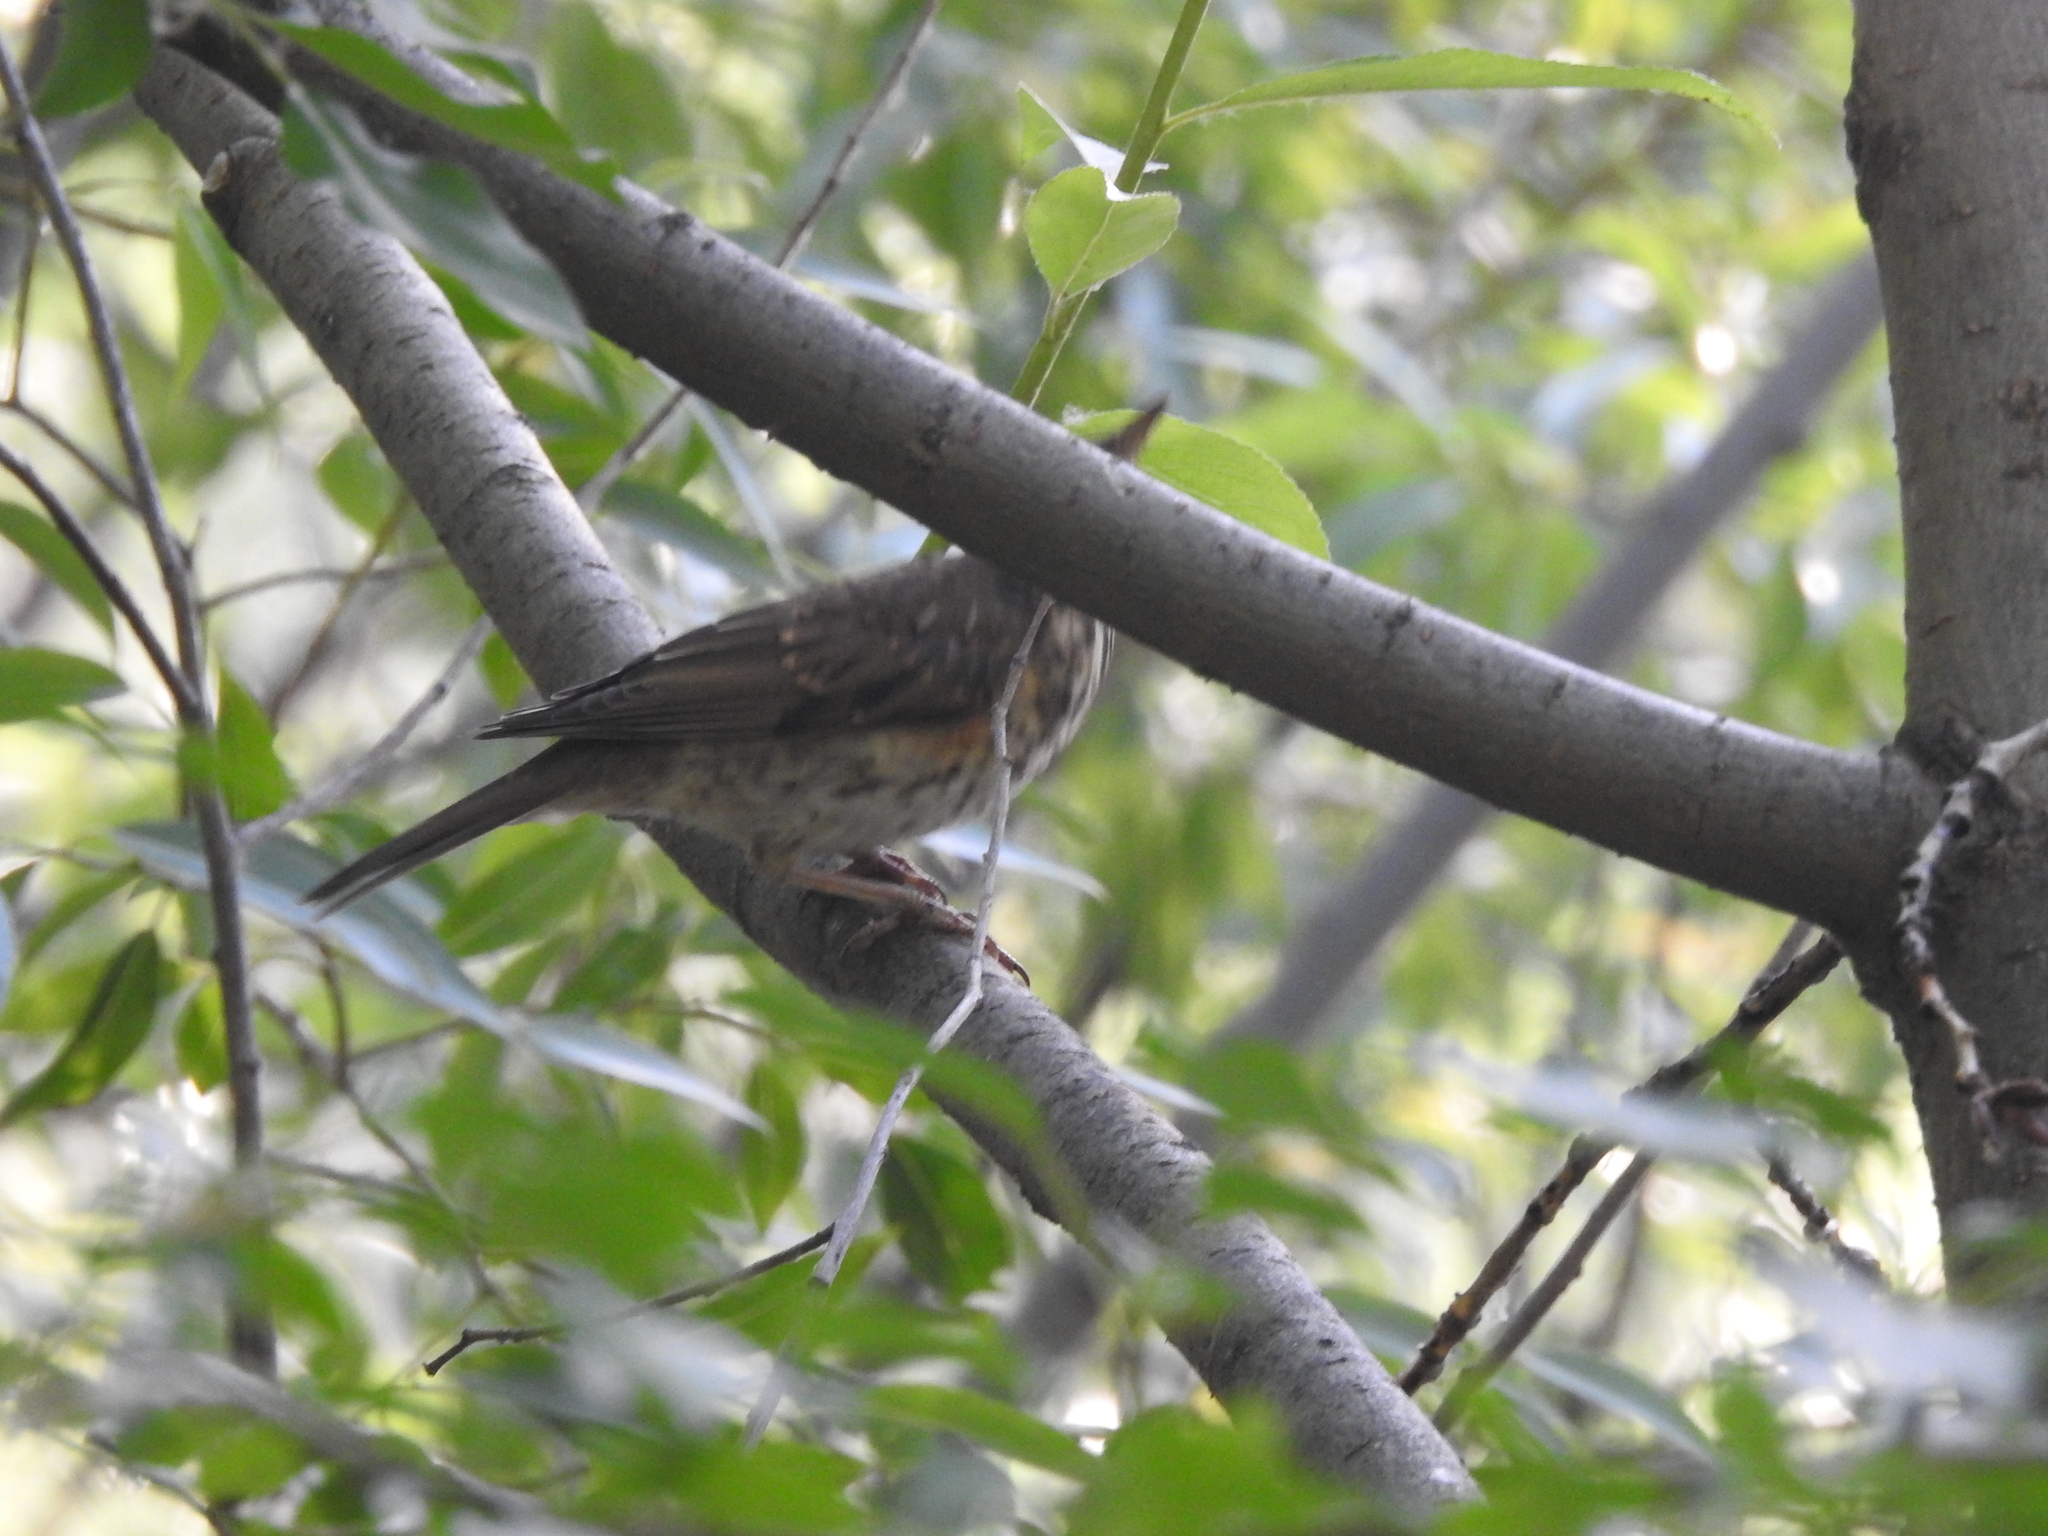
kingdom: Animalia
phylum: Chordata
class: Aves
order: Passeriformes
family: Turdidae
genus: Turdus
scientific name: Turdus iliacus
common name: Redwing
